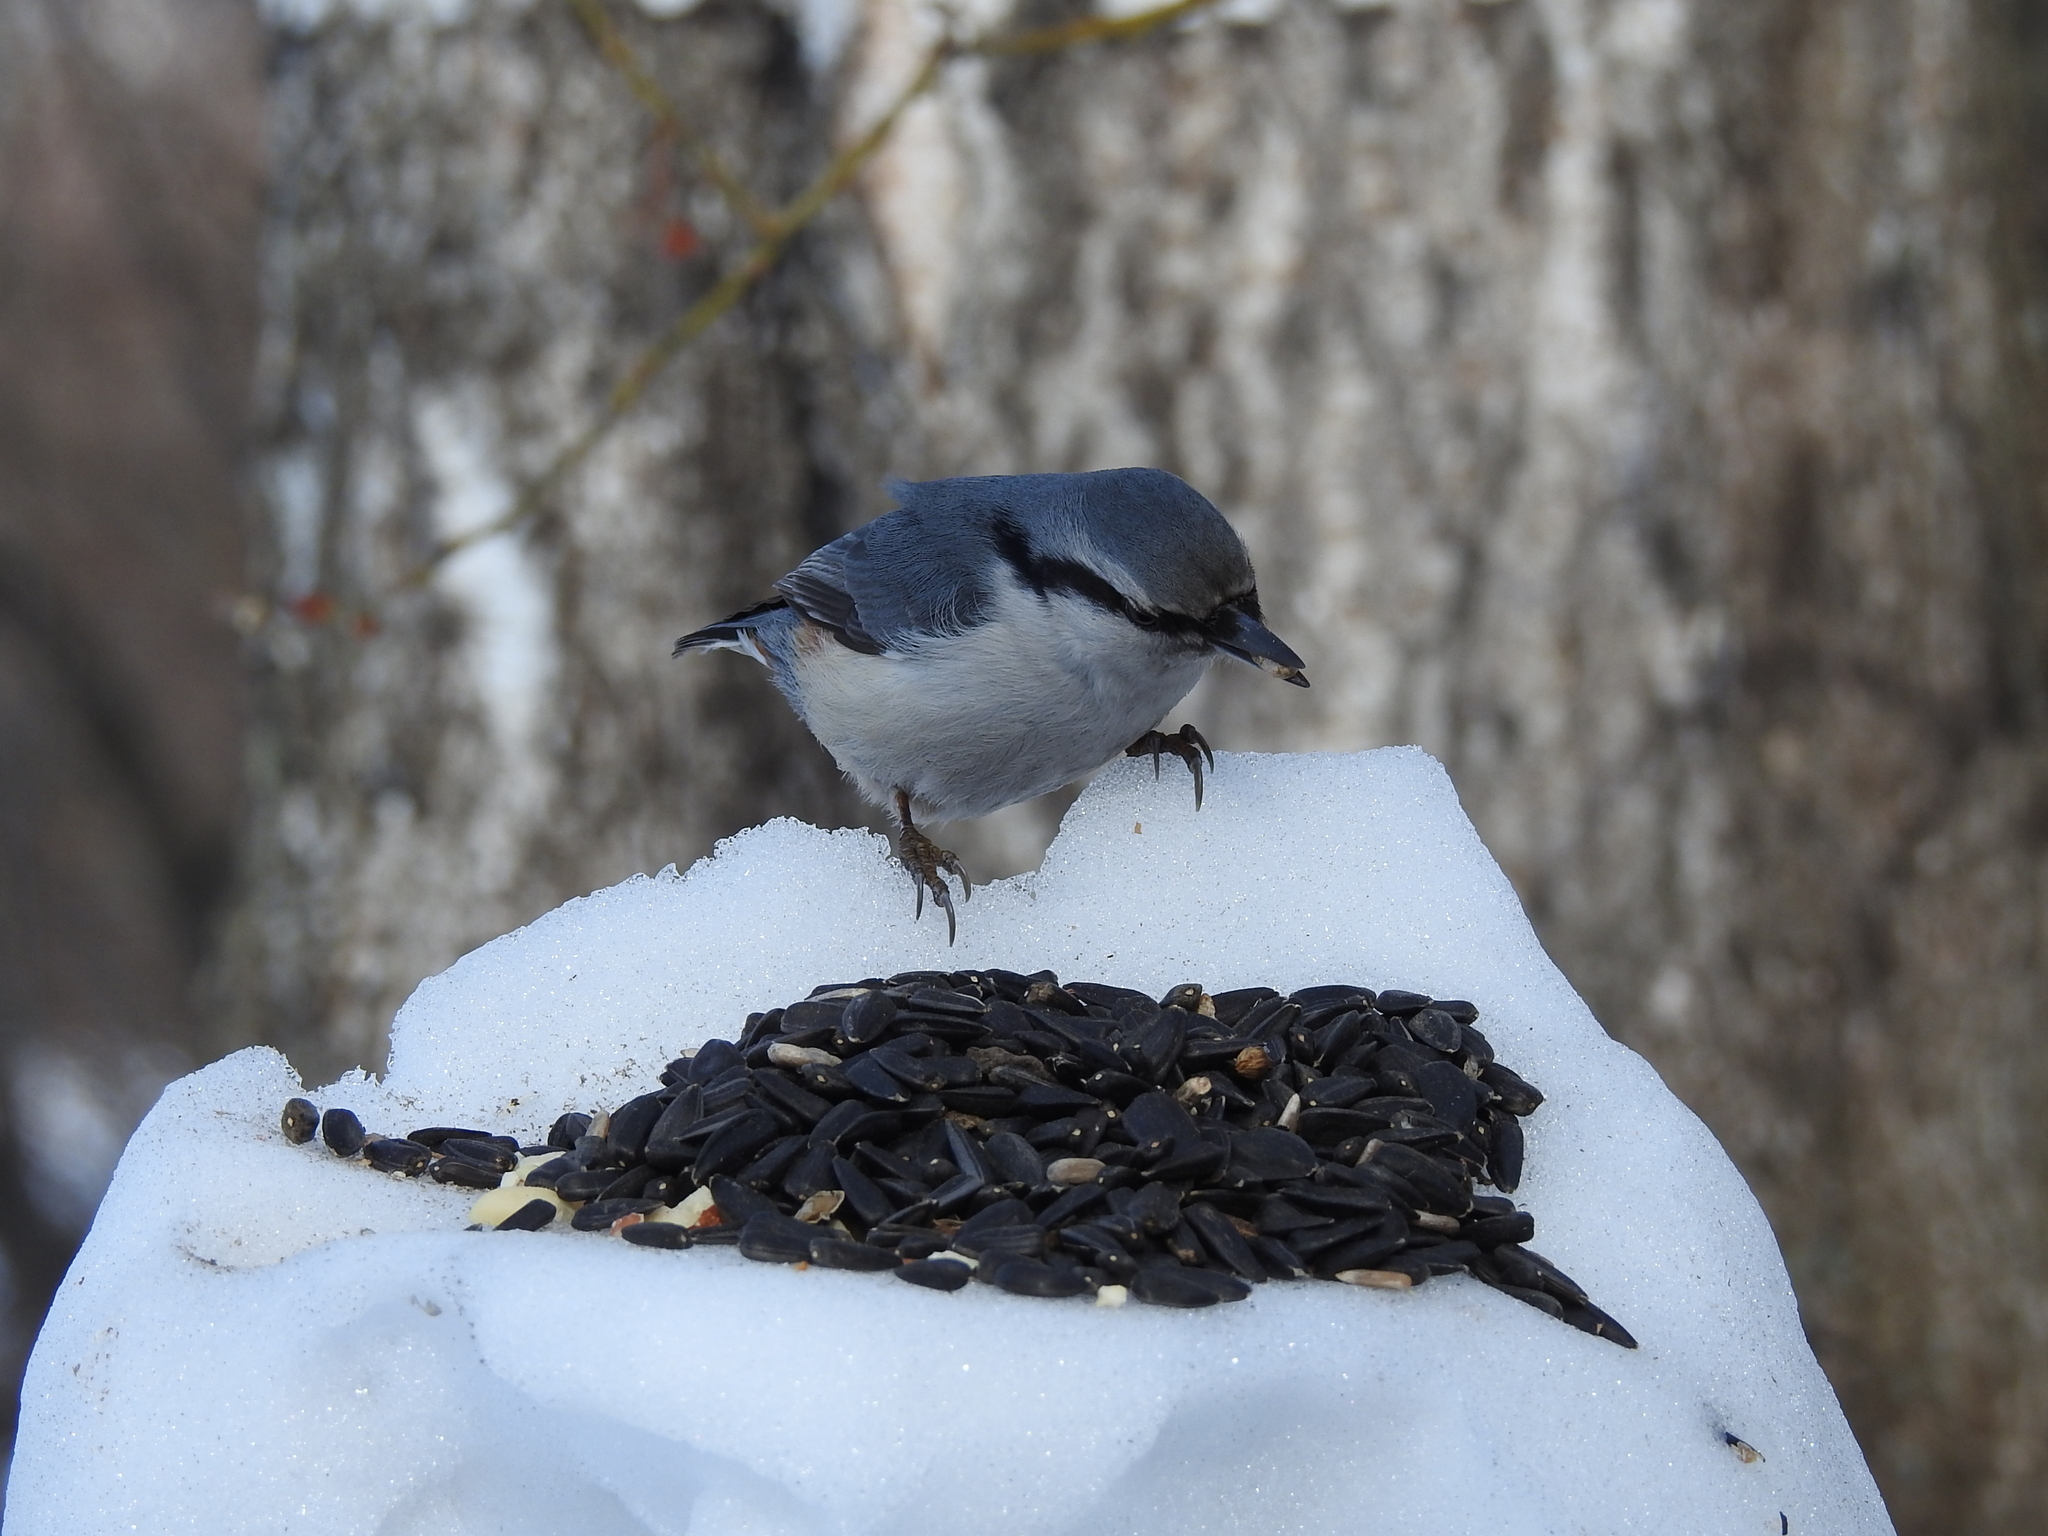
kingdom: Animalia
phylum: Chordata
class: Aves
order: Passeriformes
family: Sittidae
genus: Sitta
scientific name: Sitta europaea
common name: Eurasian nuthatch
